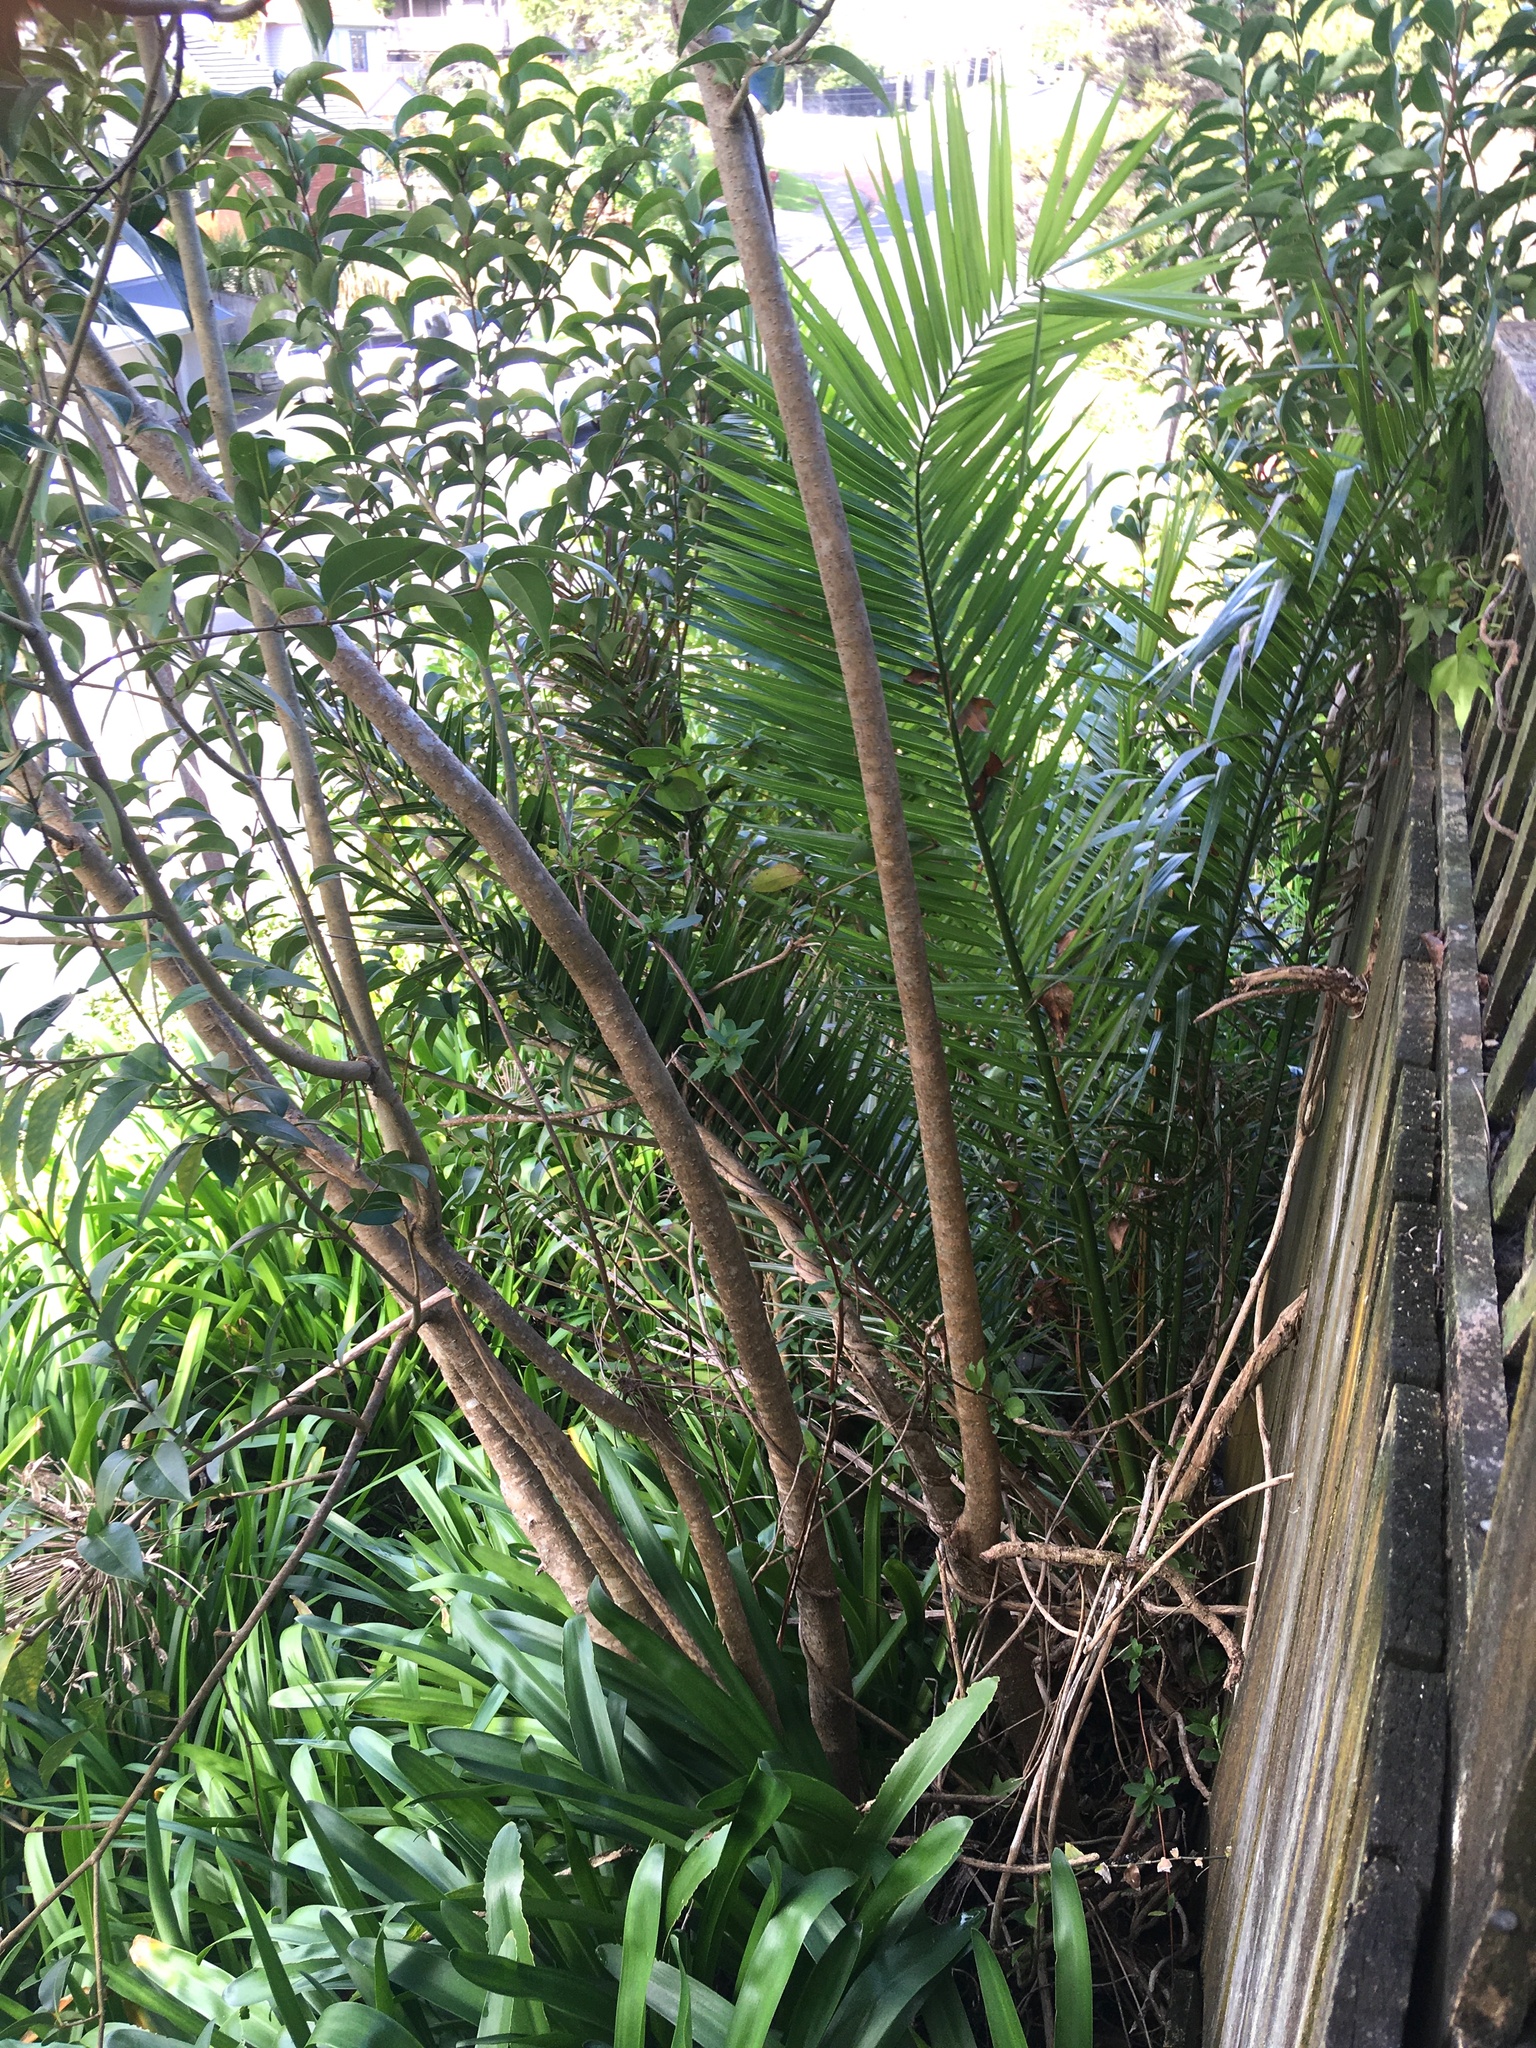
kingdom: Plantae
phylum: Tracheophyta
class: Magnoliopsida
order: Lamiales
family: Oleaceae
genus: Ligustrum
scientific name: Ligustrum lucidum
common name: Glossy privet
